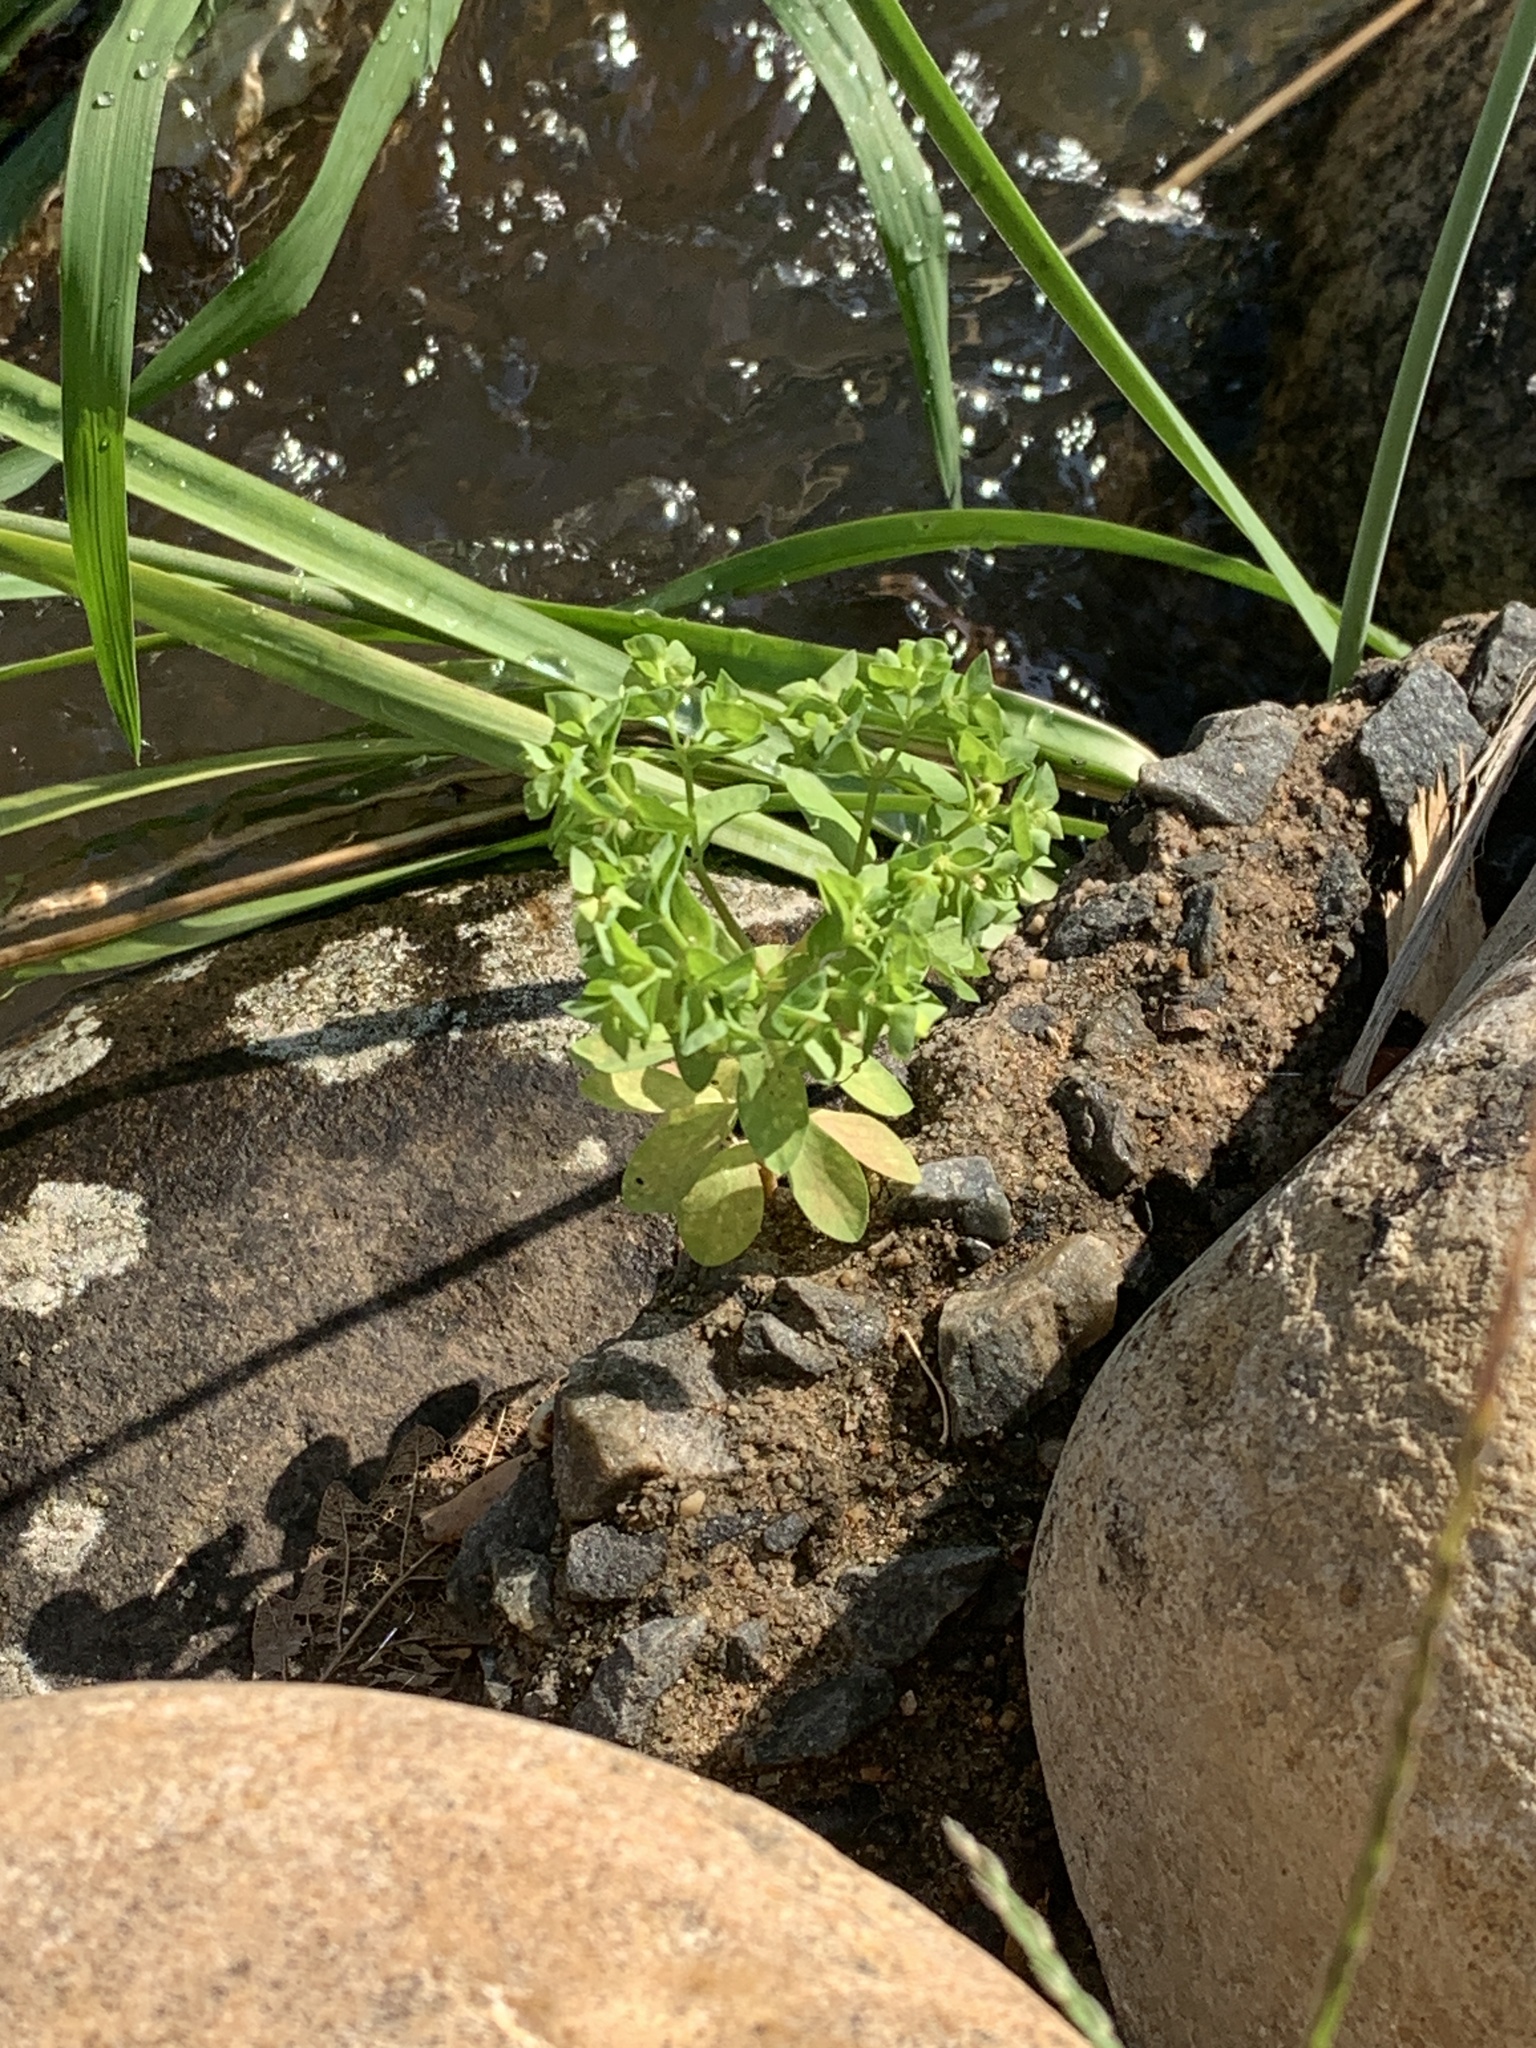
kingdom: Plantae
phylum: Tracheophyta
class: Magnoliopsida
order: Malpighiales
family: Euphorbiaceae
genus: Euphorbia
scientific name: Euphorbia peplus
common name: Petty spurge
